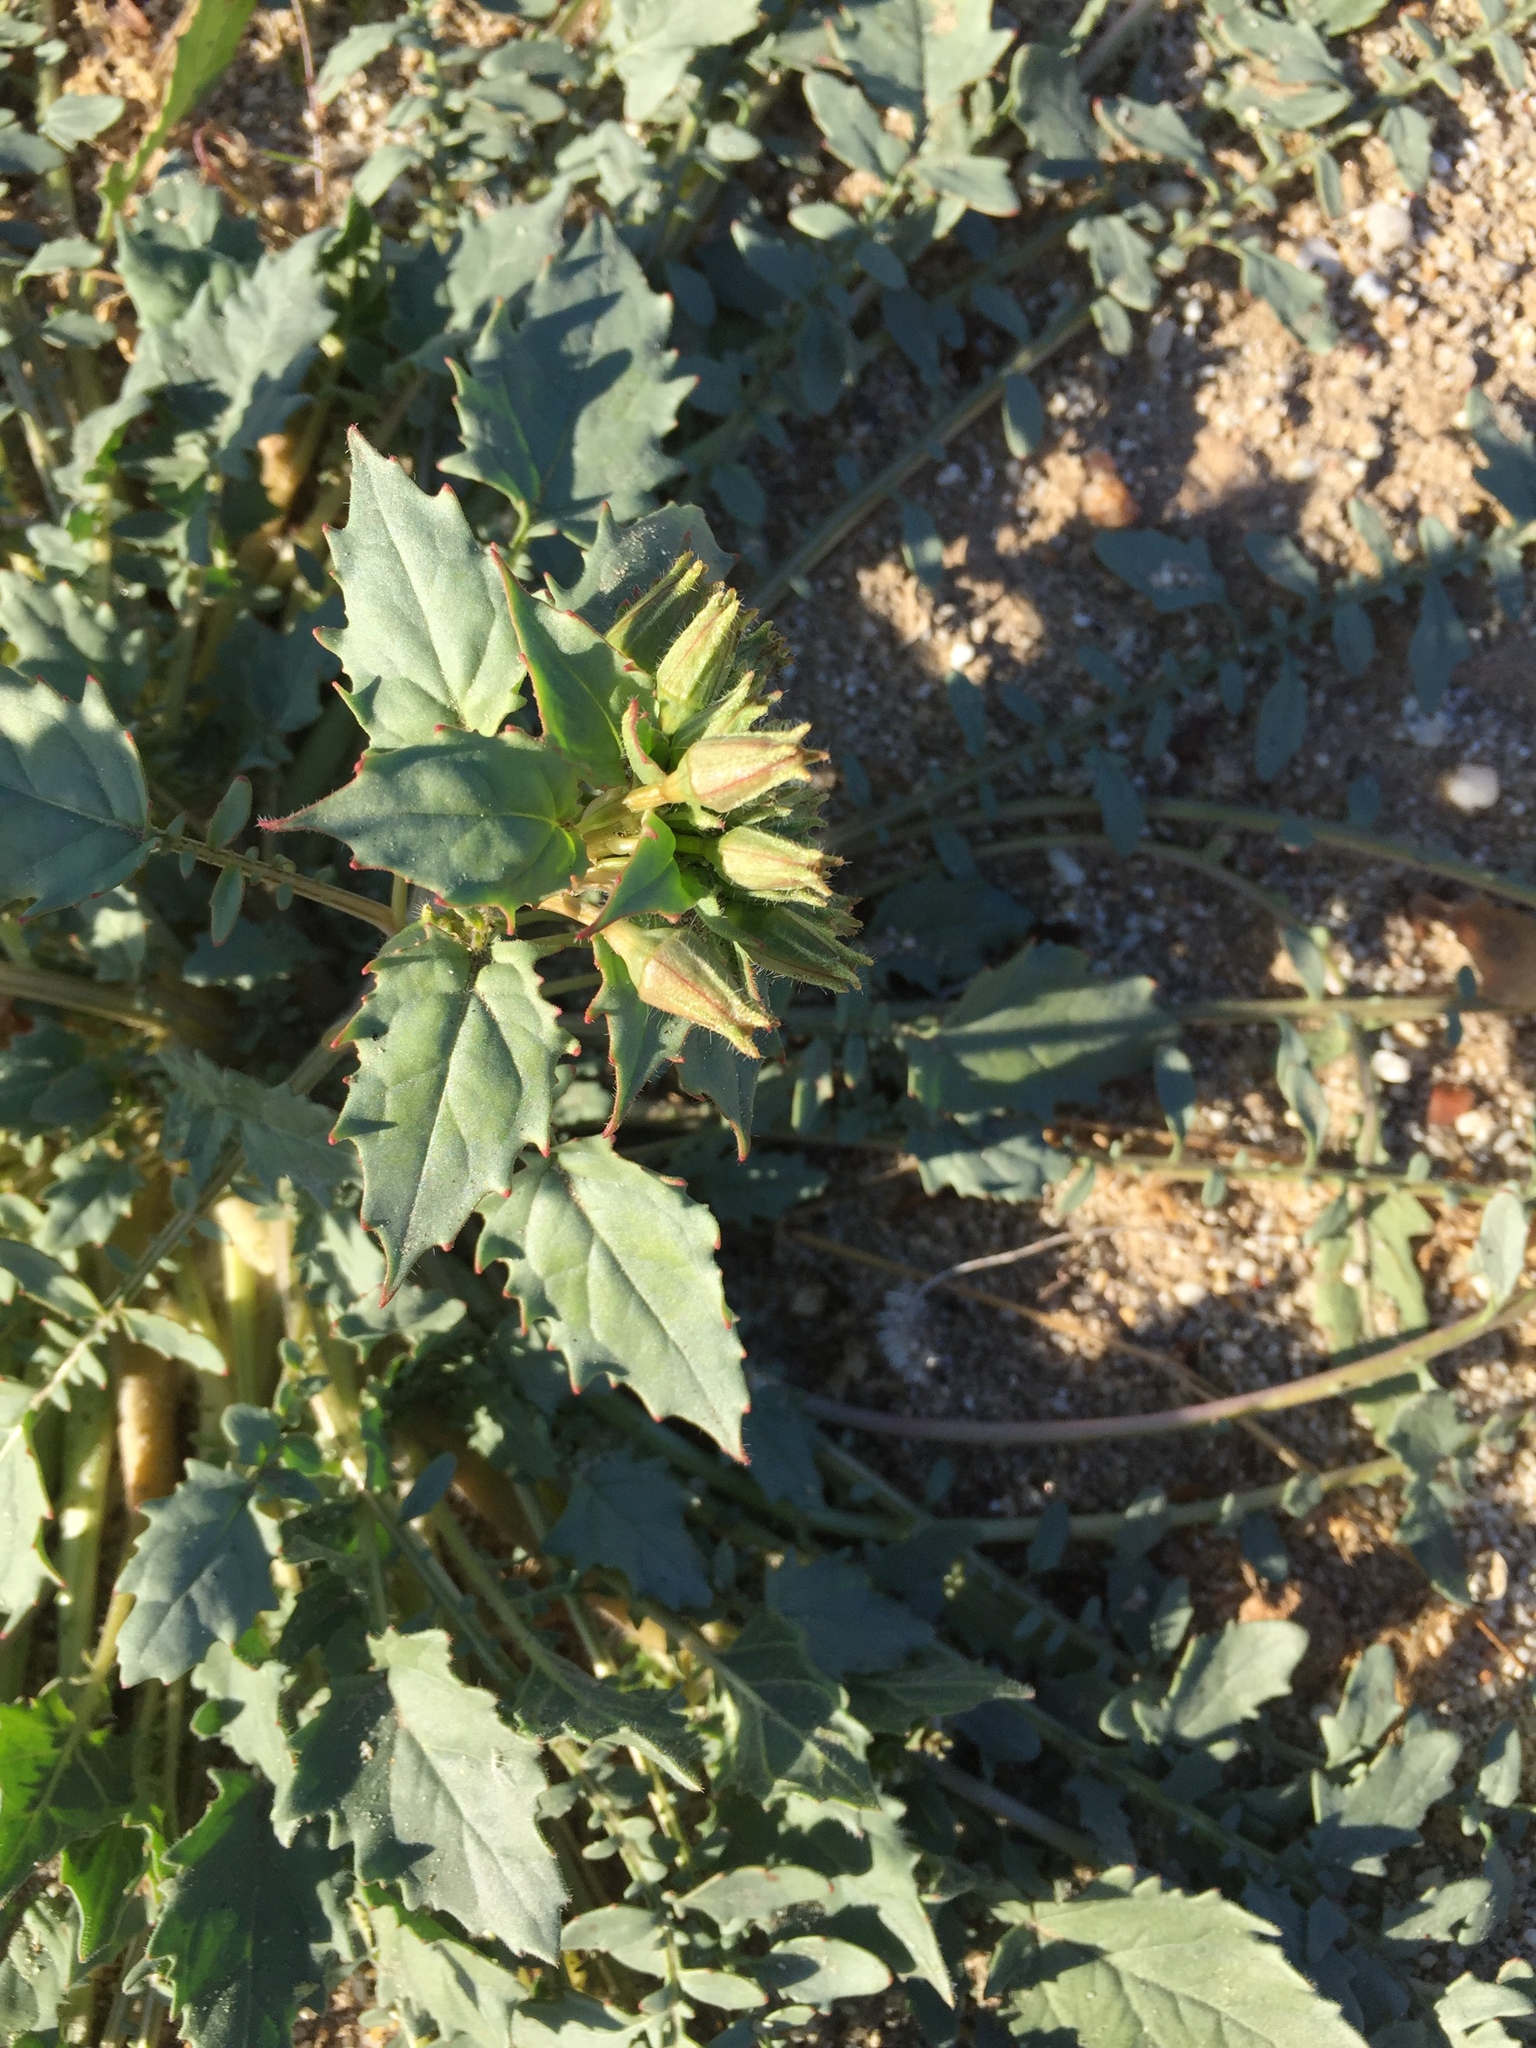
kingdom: Plantae
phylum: Tracheophyta
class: Magnoliopsida
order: Myrtales
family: Onagraceae
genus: Chylismia
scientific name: Chylismia claviformis
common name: Browneyes
